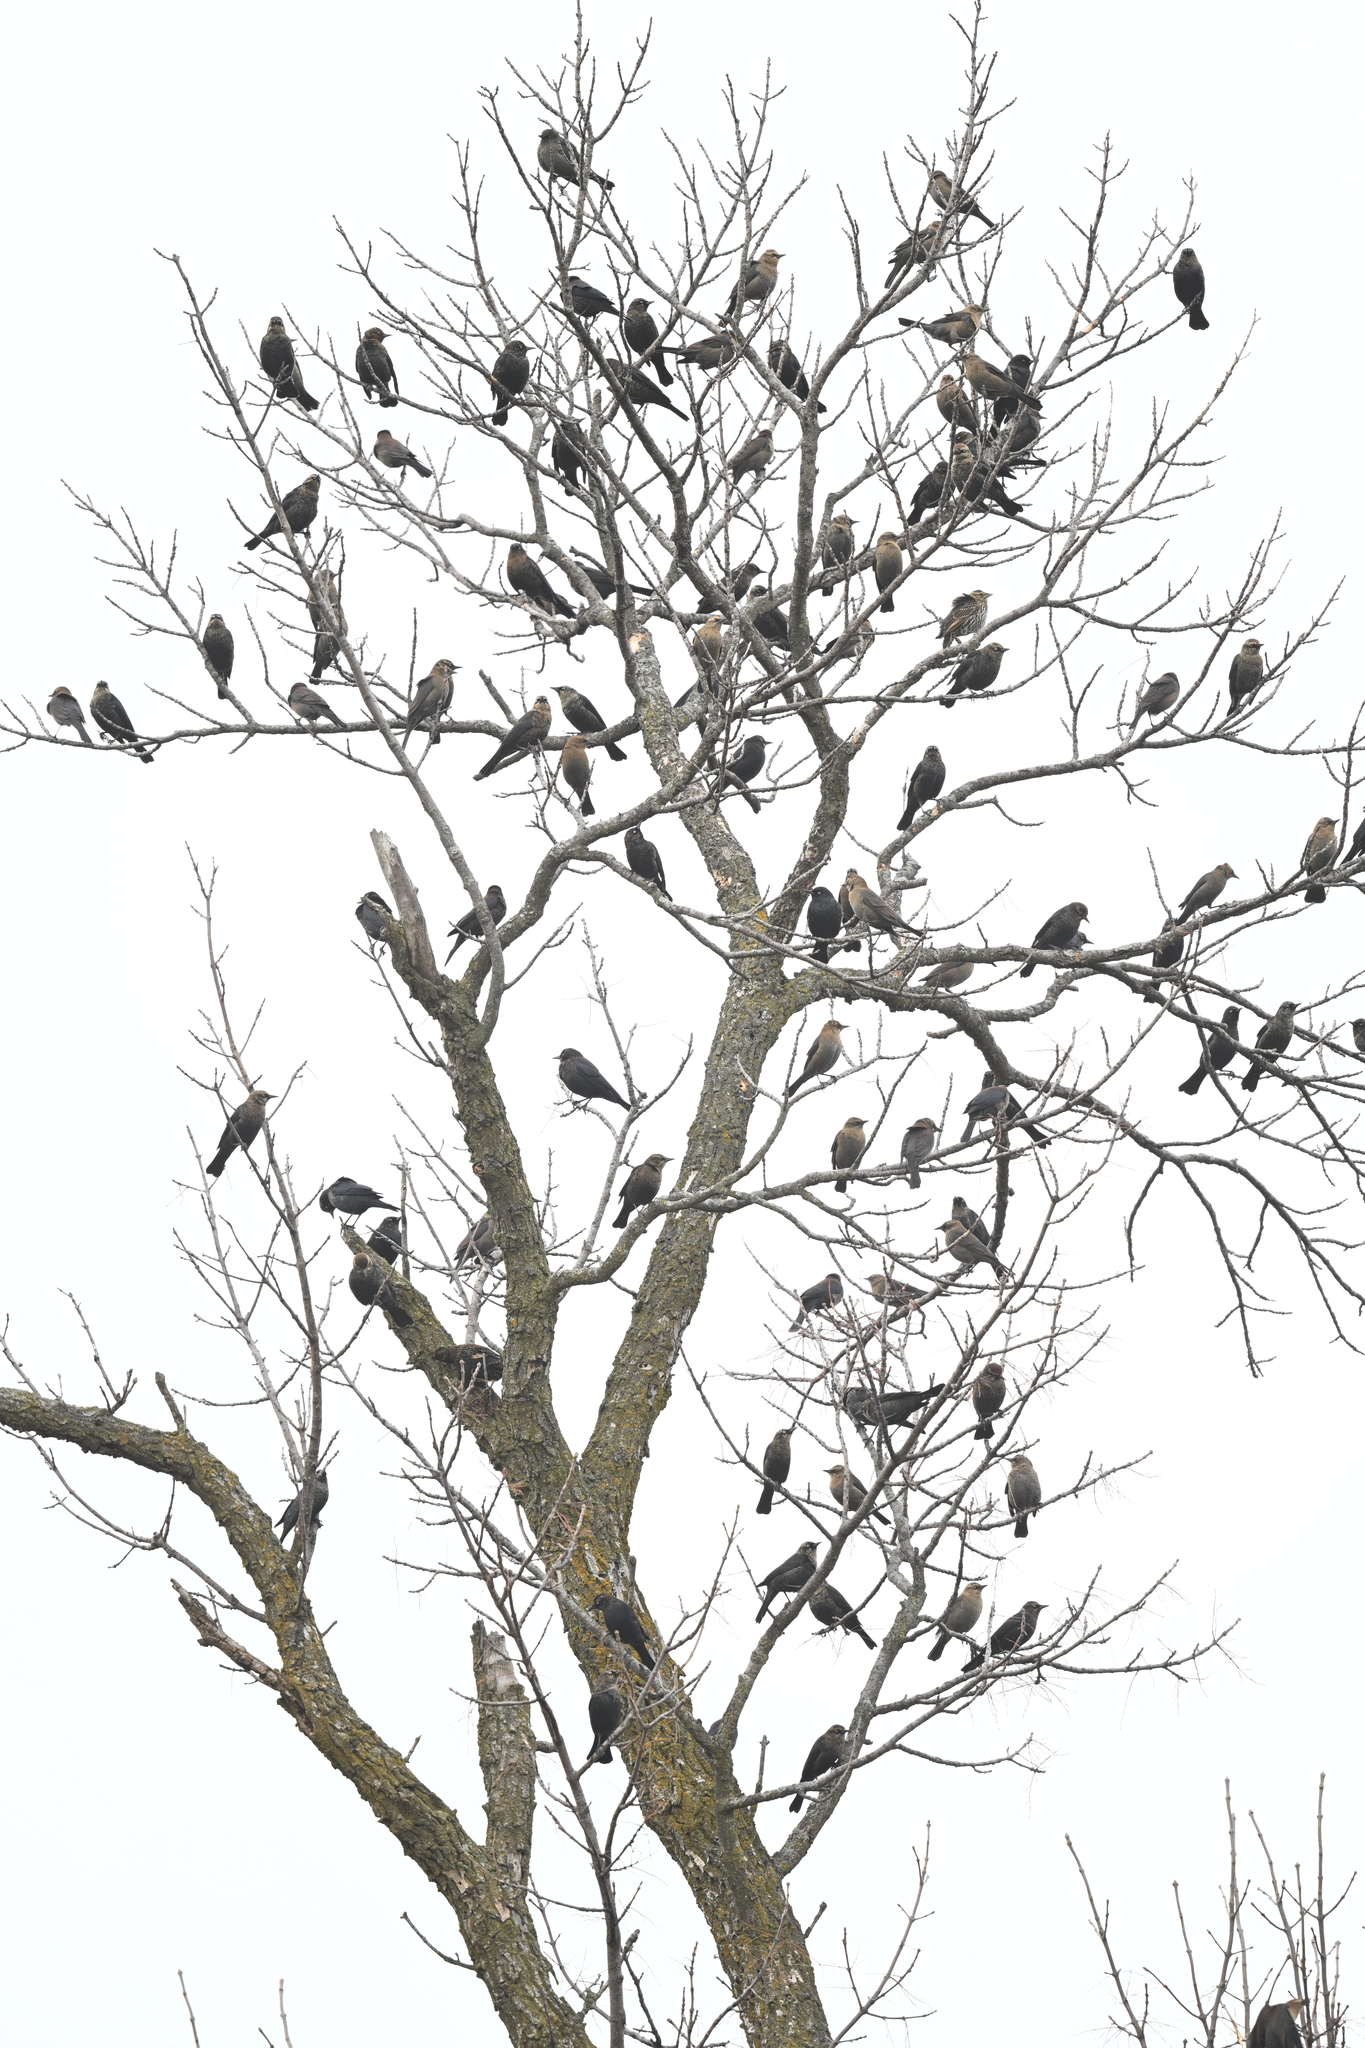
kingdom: Animalia
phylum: Chordata
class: Aves
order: Passeriformes
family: Icteridae
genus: Euphagus
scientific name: Euphagus carolinus
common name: Rusty blackbird
